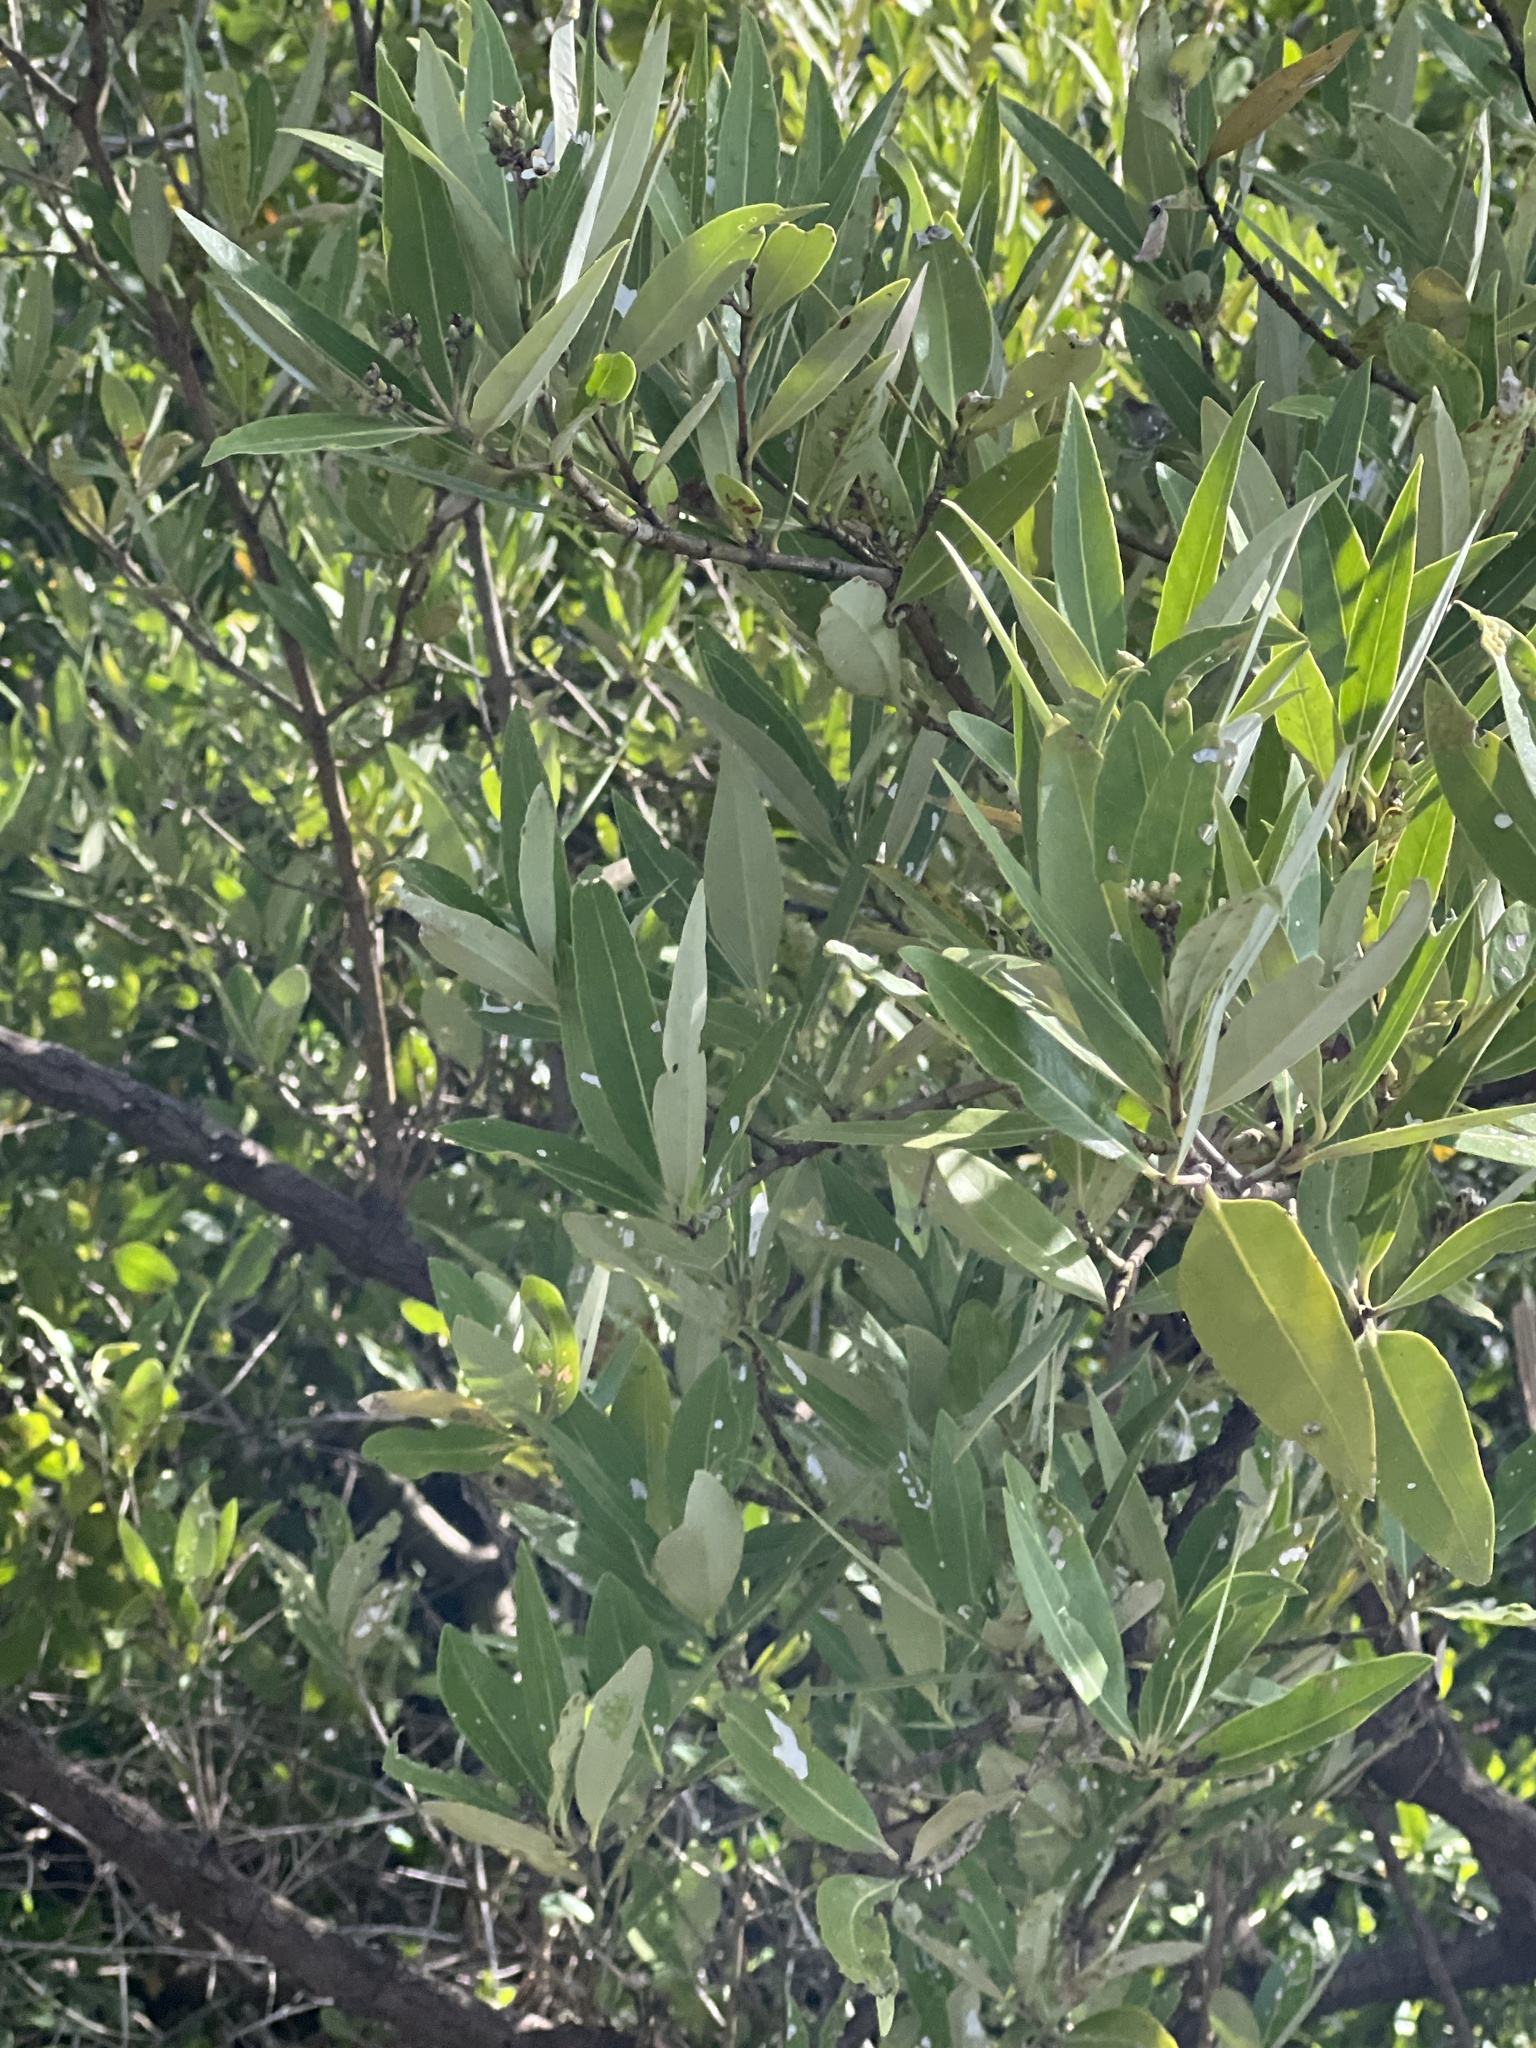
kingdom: Plantae
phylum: Tracheophyta
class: Magnoliopsida
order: Lamiales
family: Acanthaceae
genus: Avicennia
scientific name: Avicennia germinans
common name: Black mangrove
